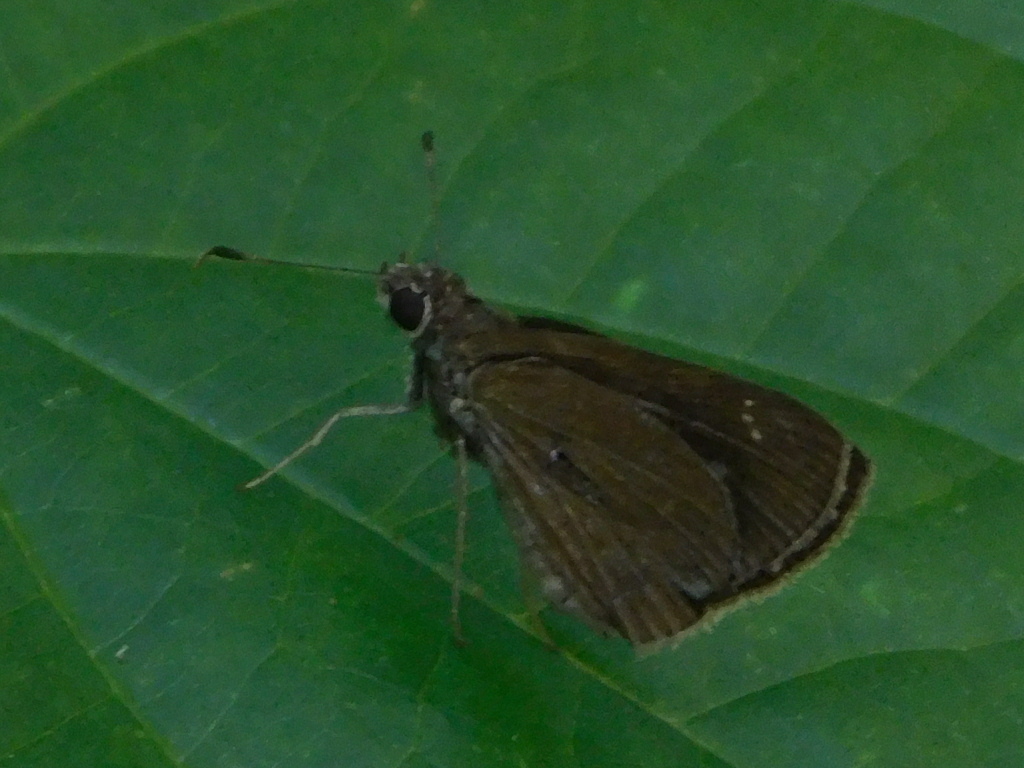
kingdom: Animalia
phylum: Arthropoda
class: Insecta
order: Lepidoptera
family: Hesperiidae
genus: Cymaenes
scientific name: Cymaenes tripunctus
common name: Dingy dotted skipper
